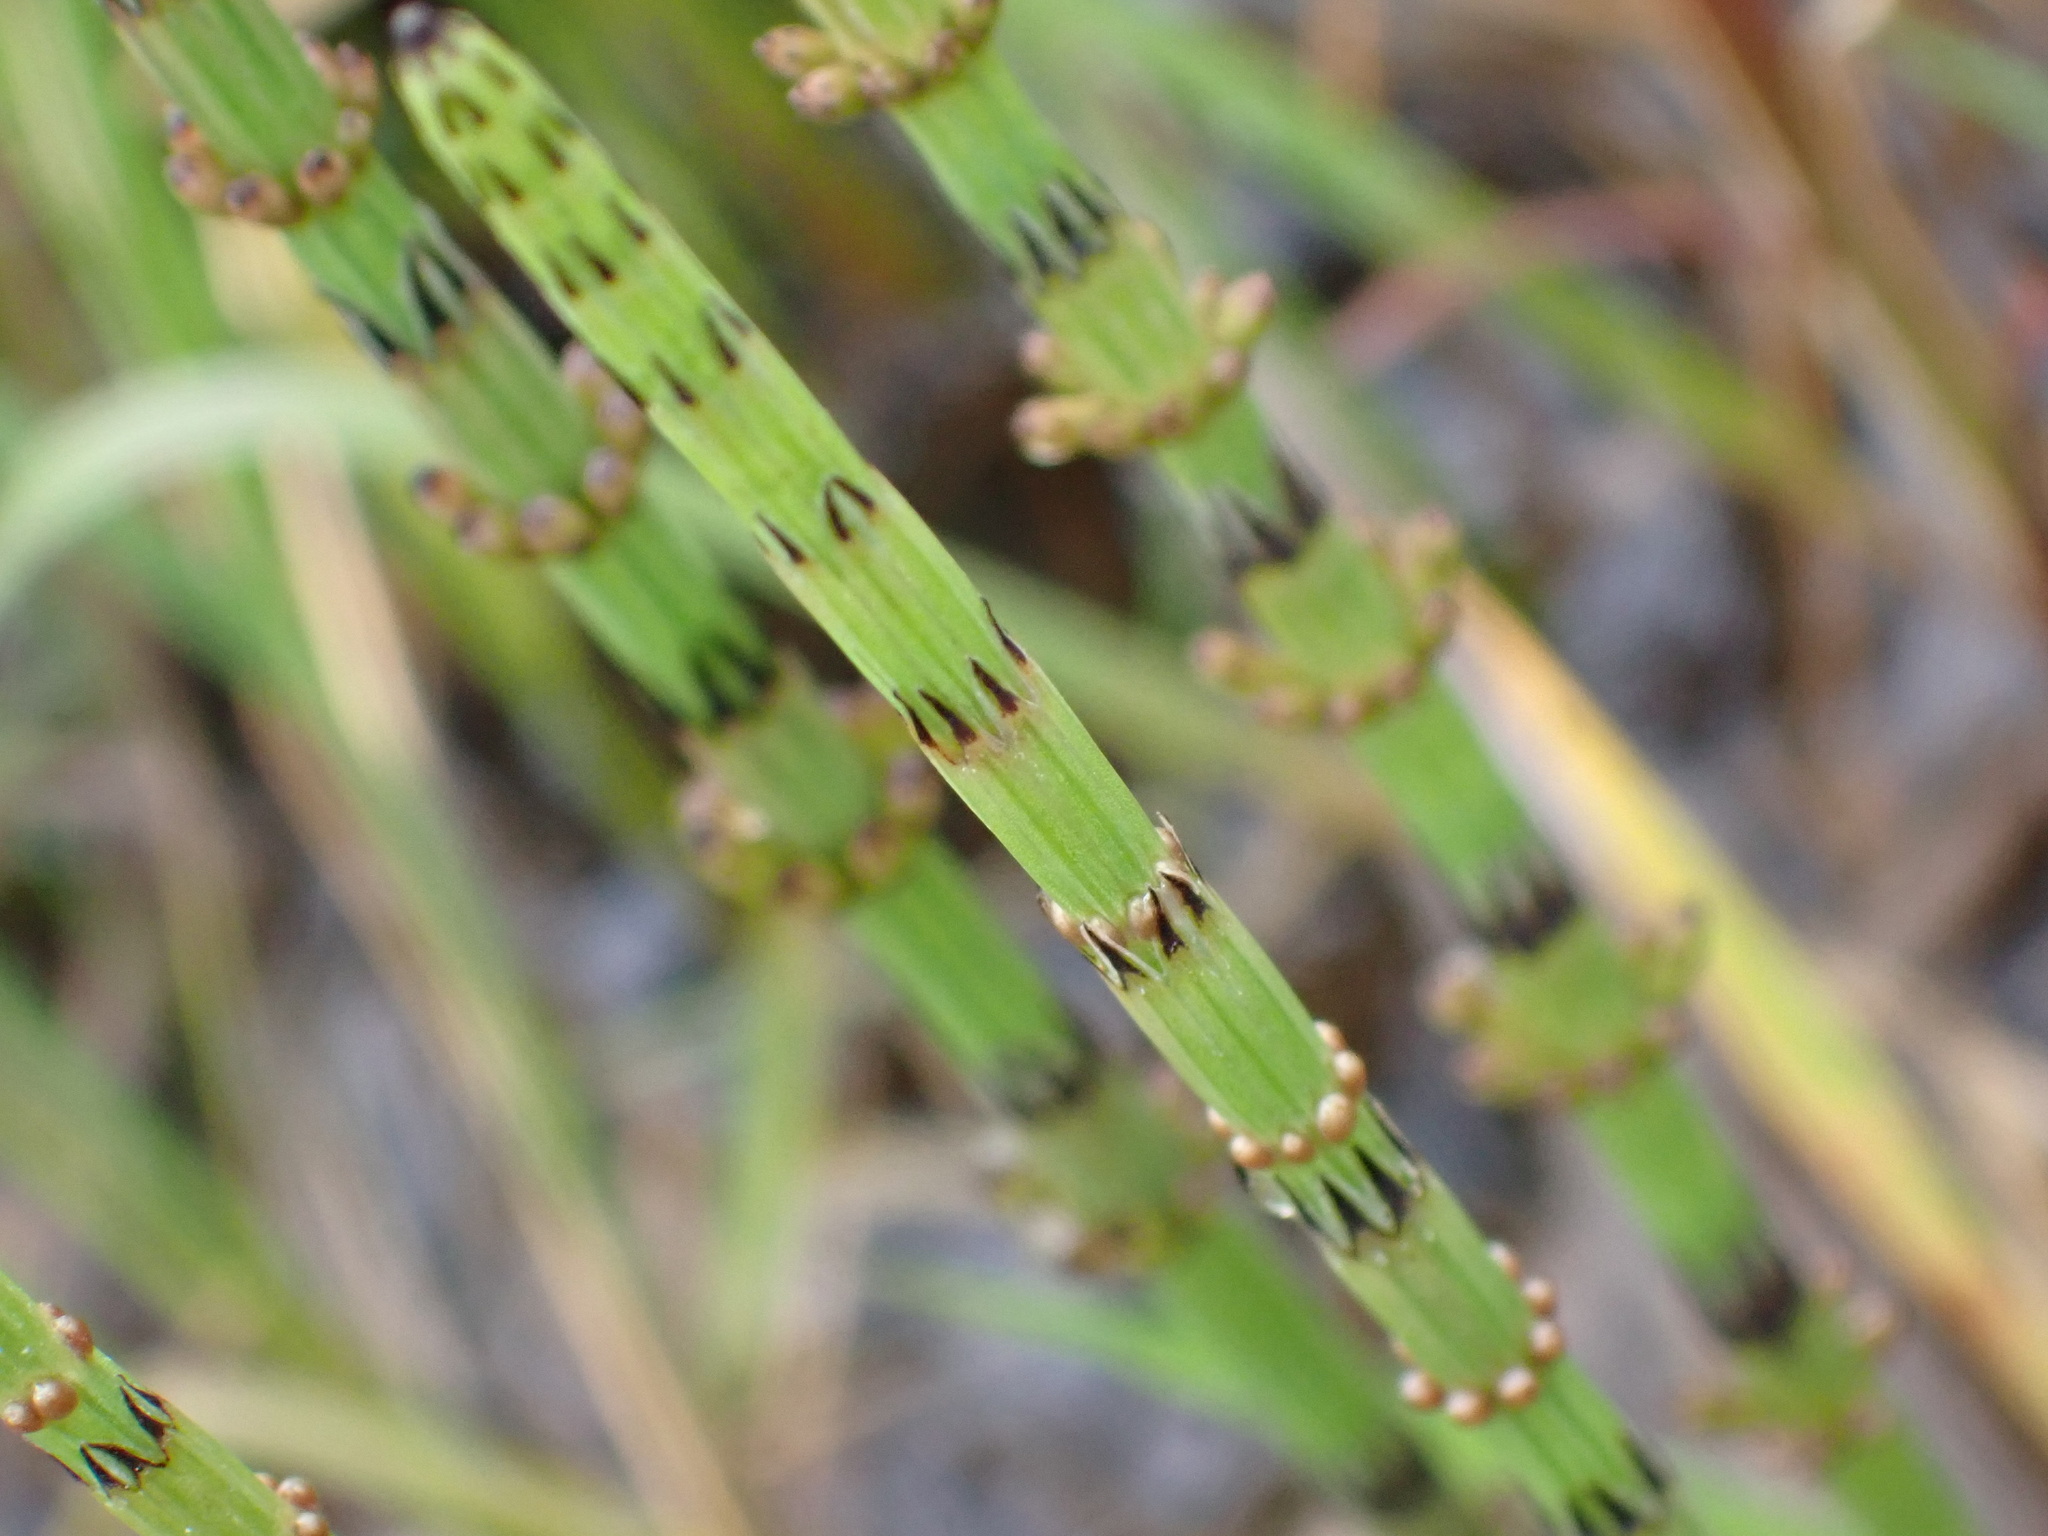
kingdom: Plantae
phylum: Tracheophyta
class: Polypodiopsida
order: Equisetales
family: Equisetaceae
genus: Equisetum
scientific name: Equisetum palustre
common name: Marsh horsetail
